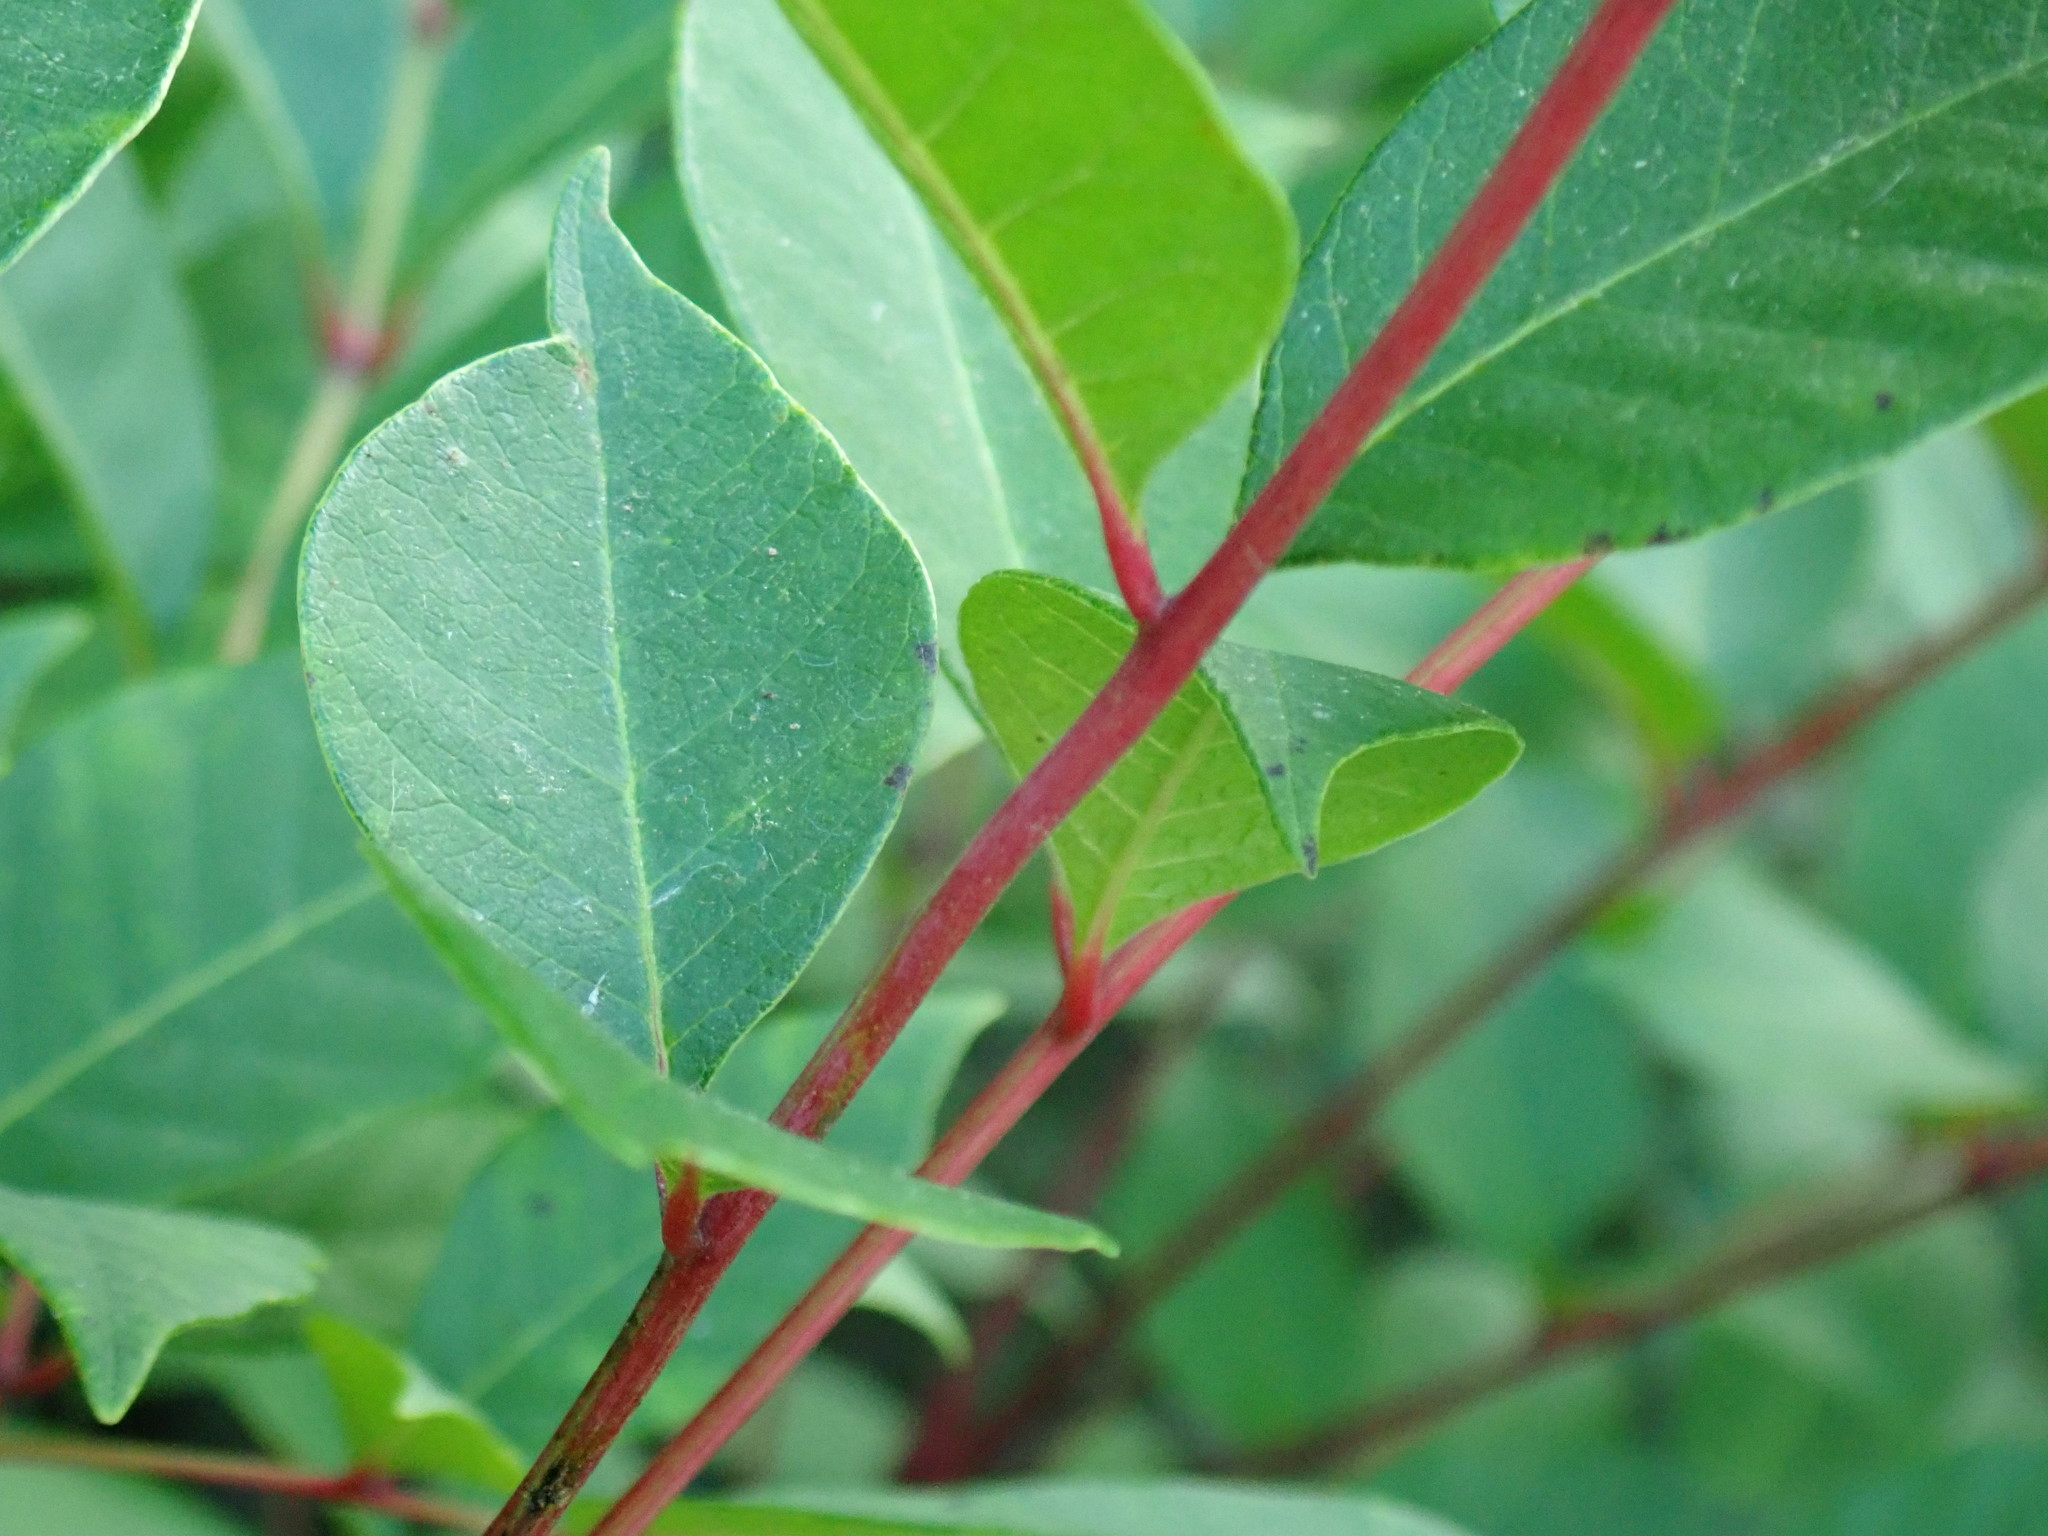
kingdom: Plantae
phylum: Tracheophyta
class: Magnoliopsida
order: Sapindales
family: Anacardiaceae
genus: Toxicodendron
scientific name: Toxicodendron vernix
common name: Poison sumac
